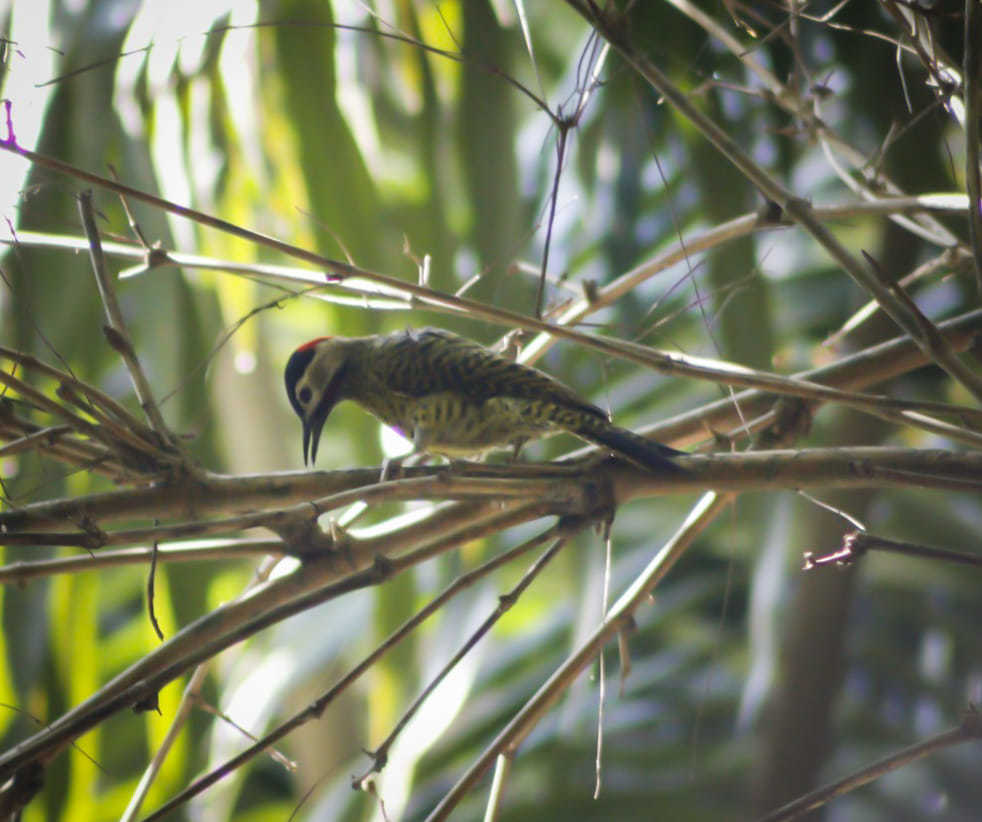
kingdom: Animalia
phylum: Chordata
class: Aves
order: Piciformes
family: Picidae
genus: Colaptes
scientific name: Colaptes melanochloros
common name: Green-barred woodpecker
